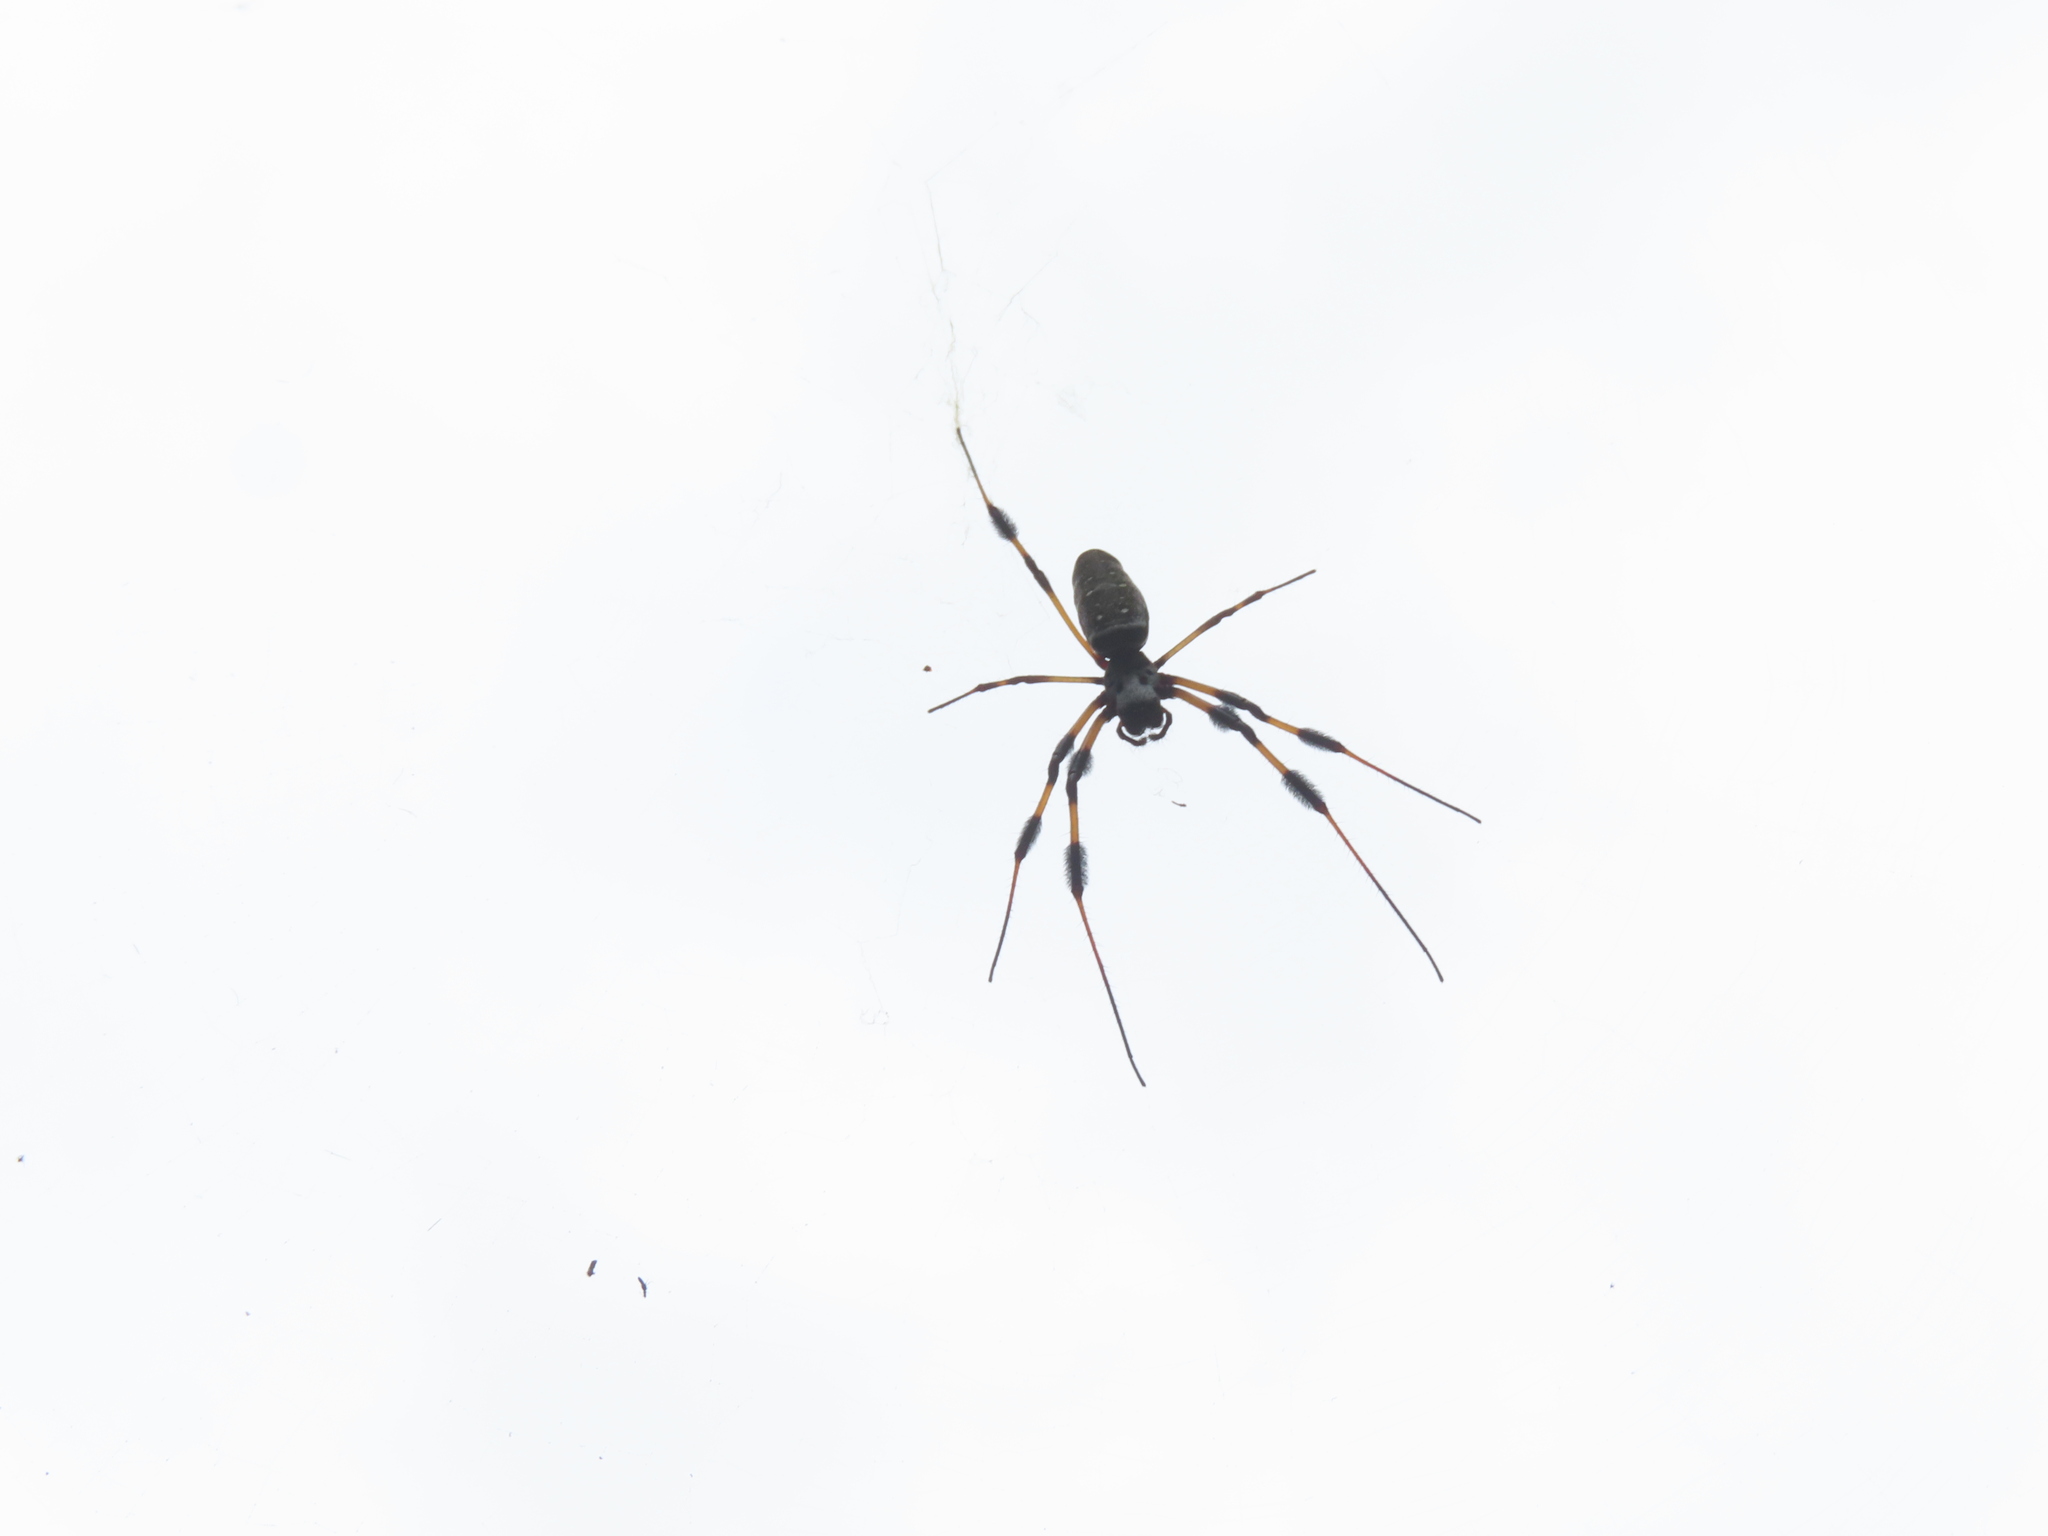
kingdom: Animalia
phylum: Arthropoda
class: Arachnida
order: Araneae
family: Araneidae
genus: Trichonephila
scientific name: Trichonephila clavipes
